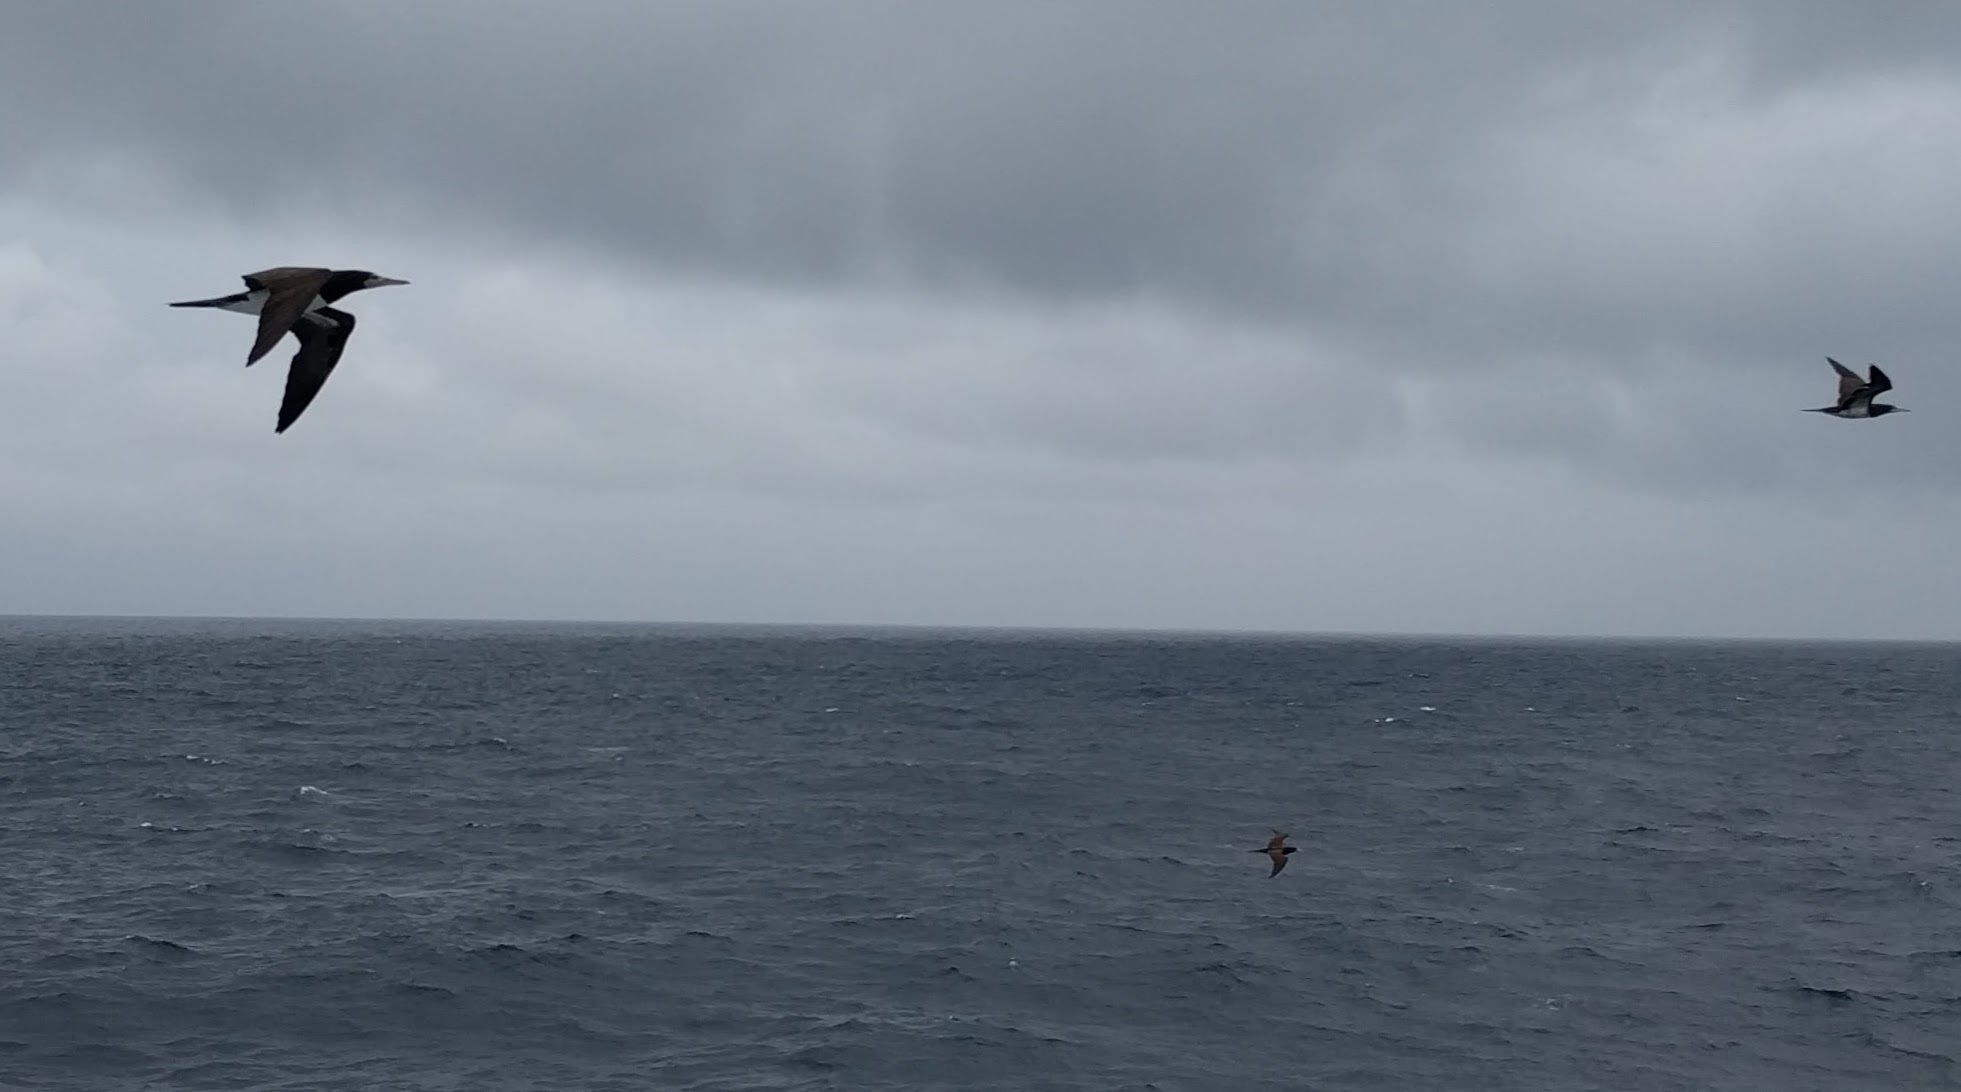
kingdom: Animalia
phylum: Chordata
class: Aves
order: Suliformes
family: Fregatidae
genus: Fregata
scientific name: Fregata magnificens
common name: Magnificent frigatebird
